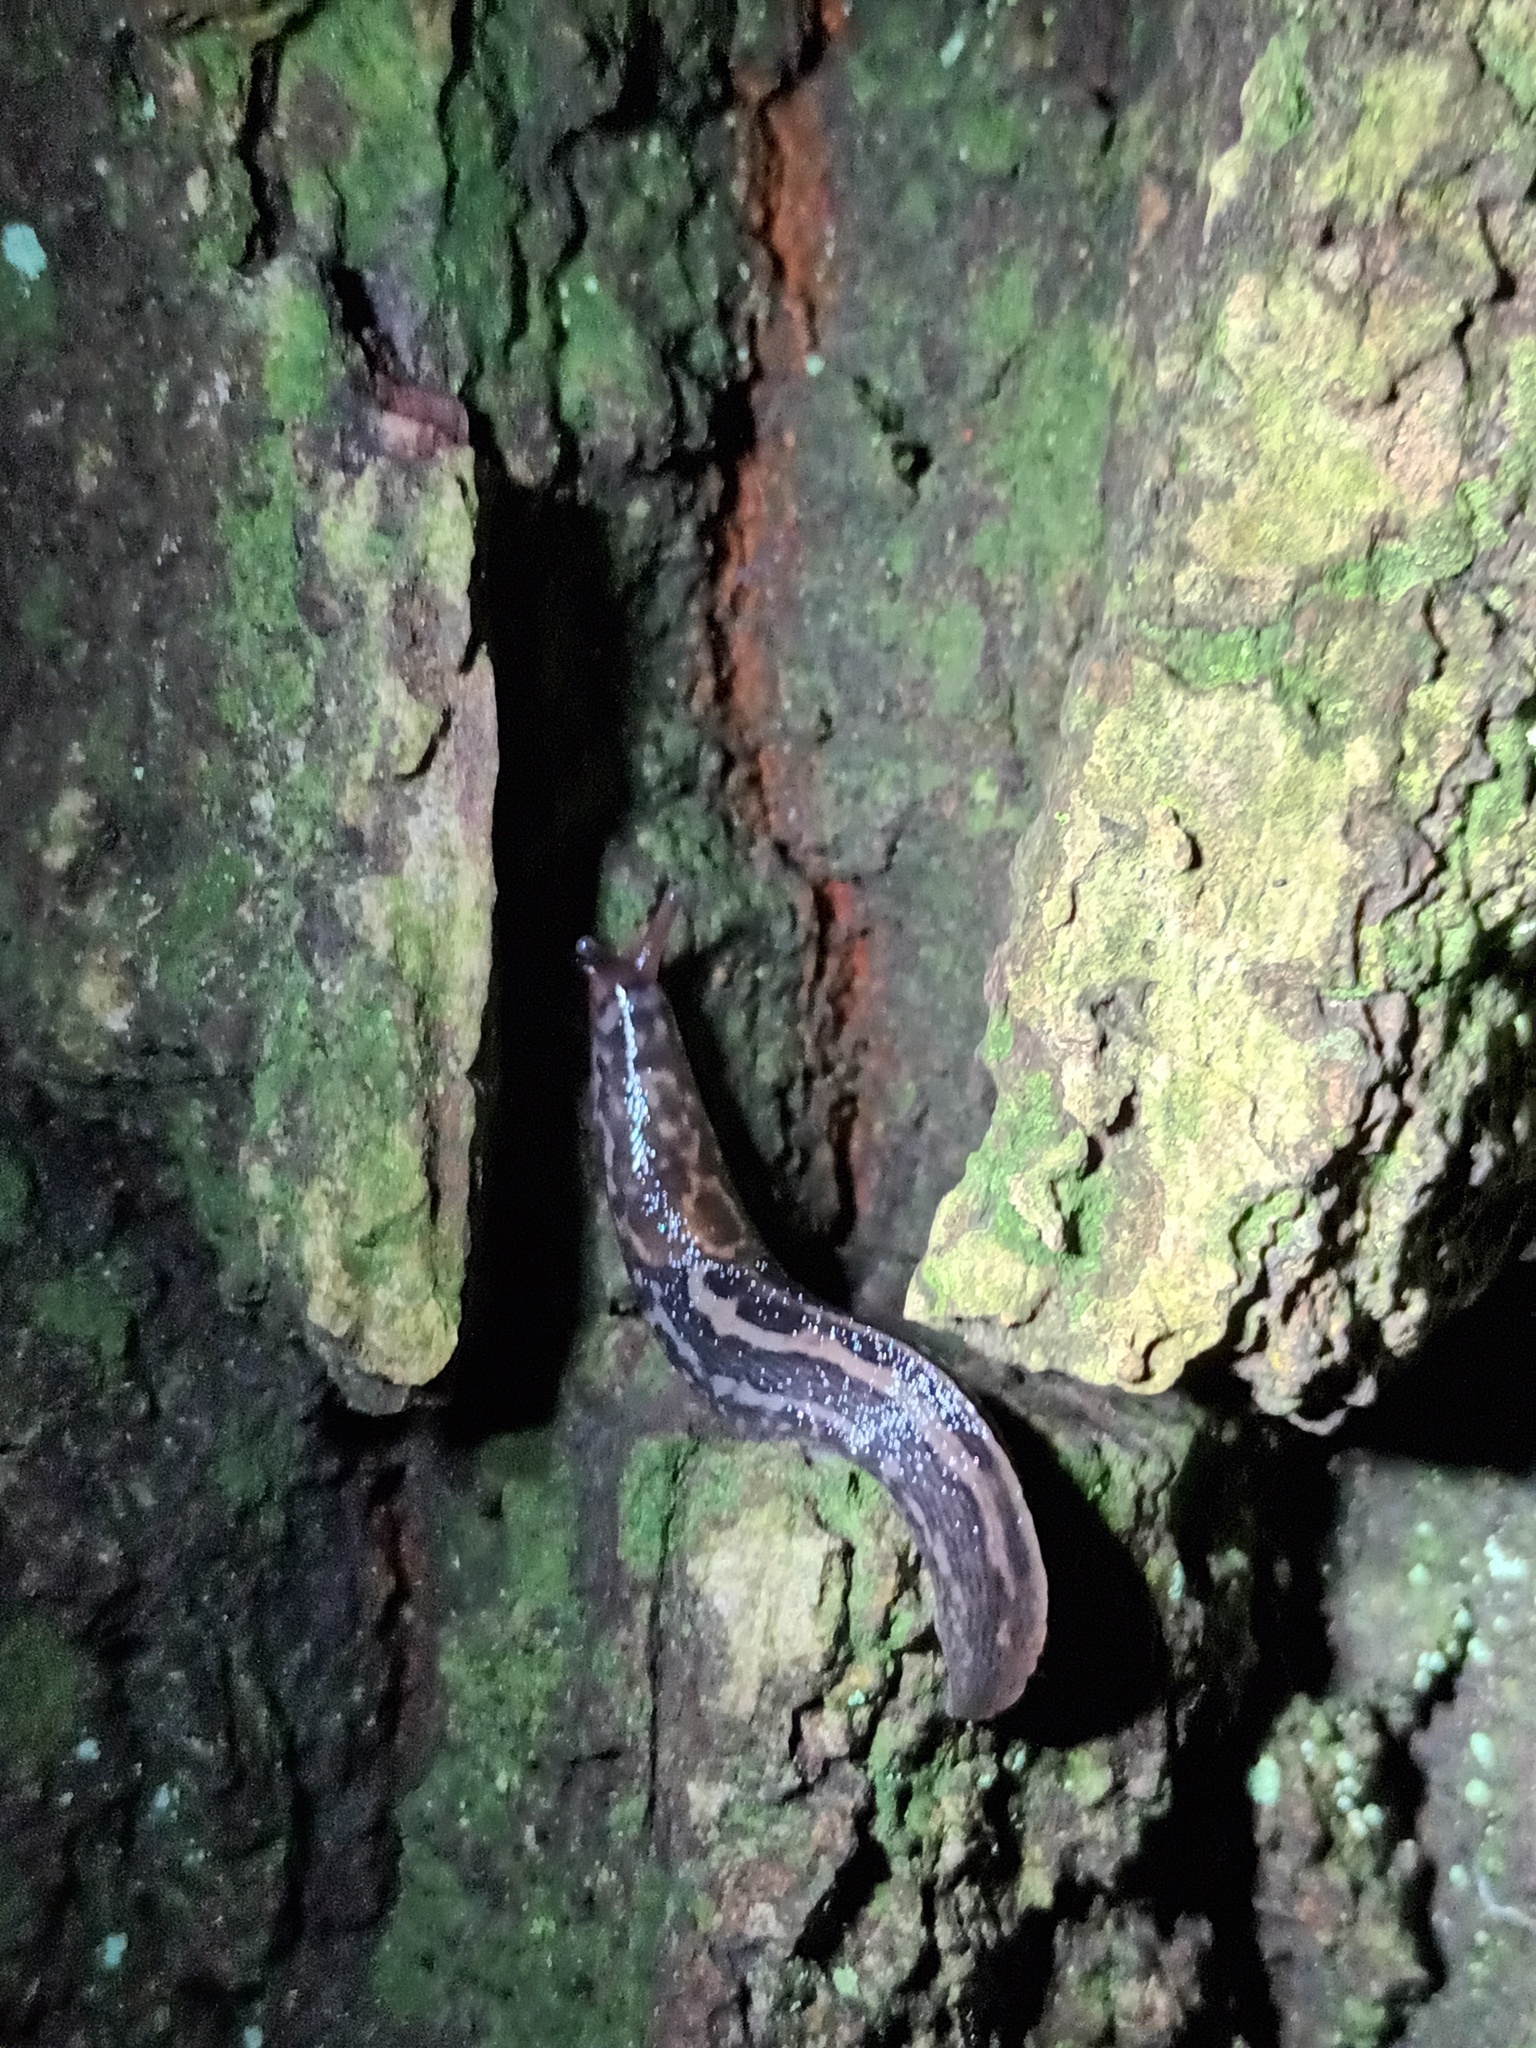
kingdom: Animalia
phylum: Mollusca
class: Gastropoda
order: Stylommatophora
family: Limacidae
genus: Limax
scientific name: Limax maximus
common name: Great grey slug
